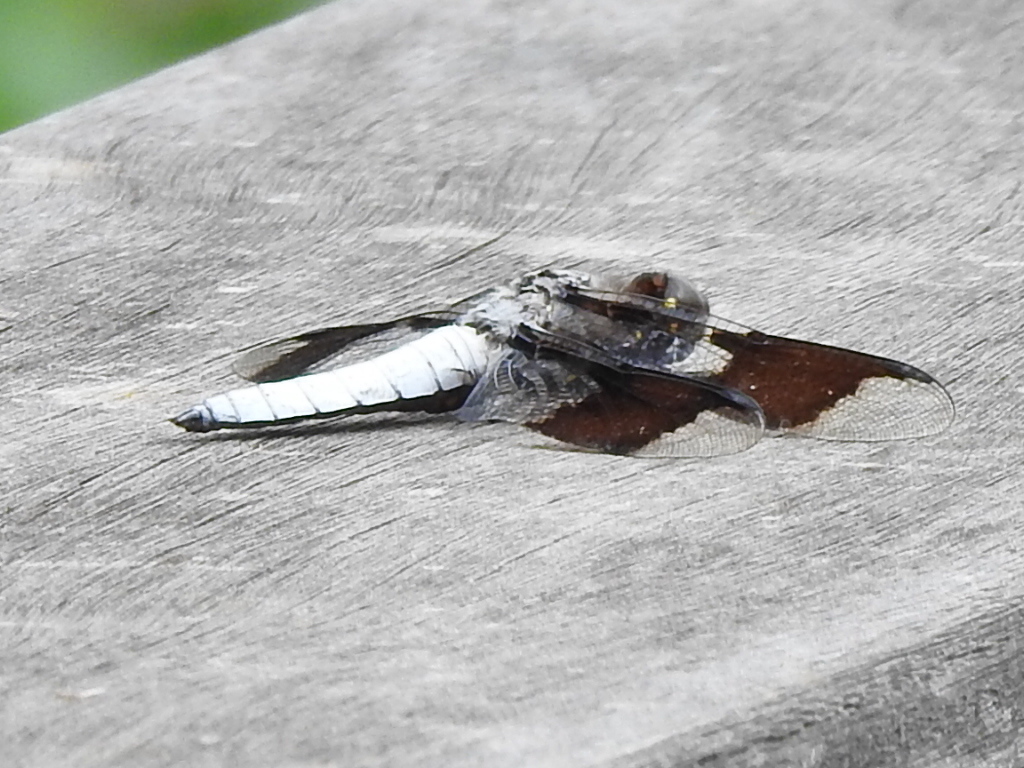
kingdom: Animalia
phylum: Arthropoda
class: Insecta
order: Odonata
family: Libellulidae
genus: Plathemis
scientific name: Plathemis lydia
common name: Common whitetail
